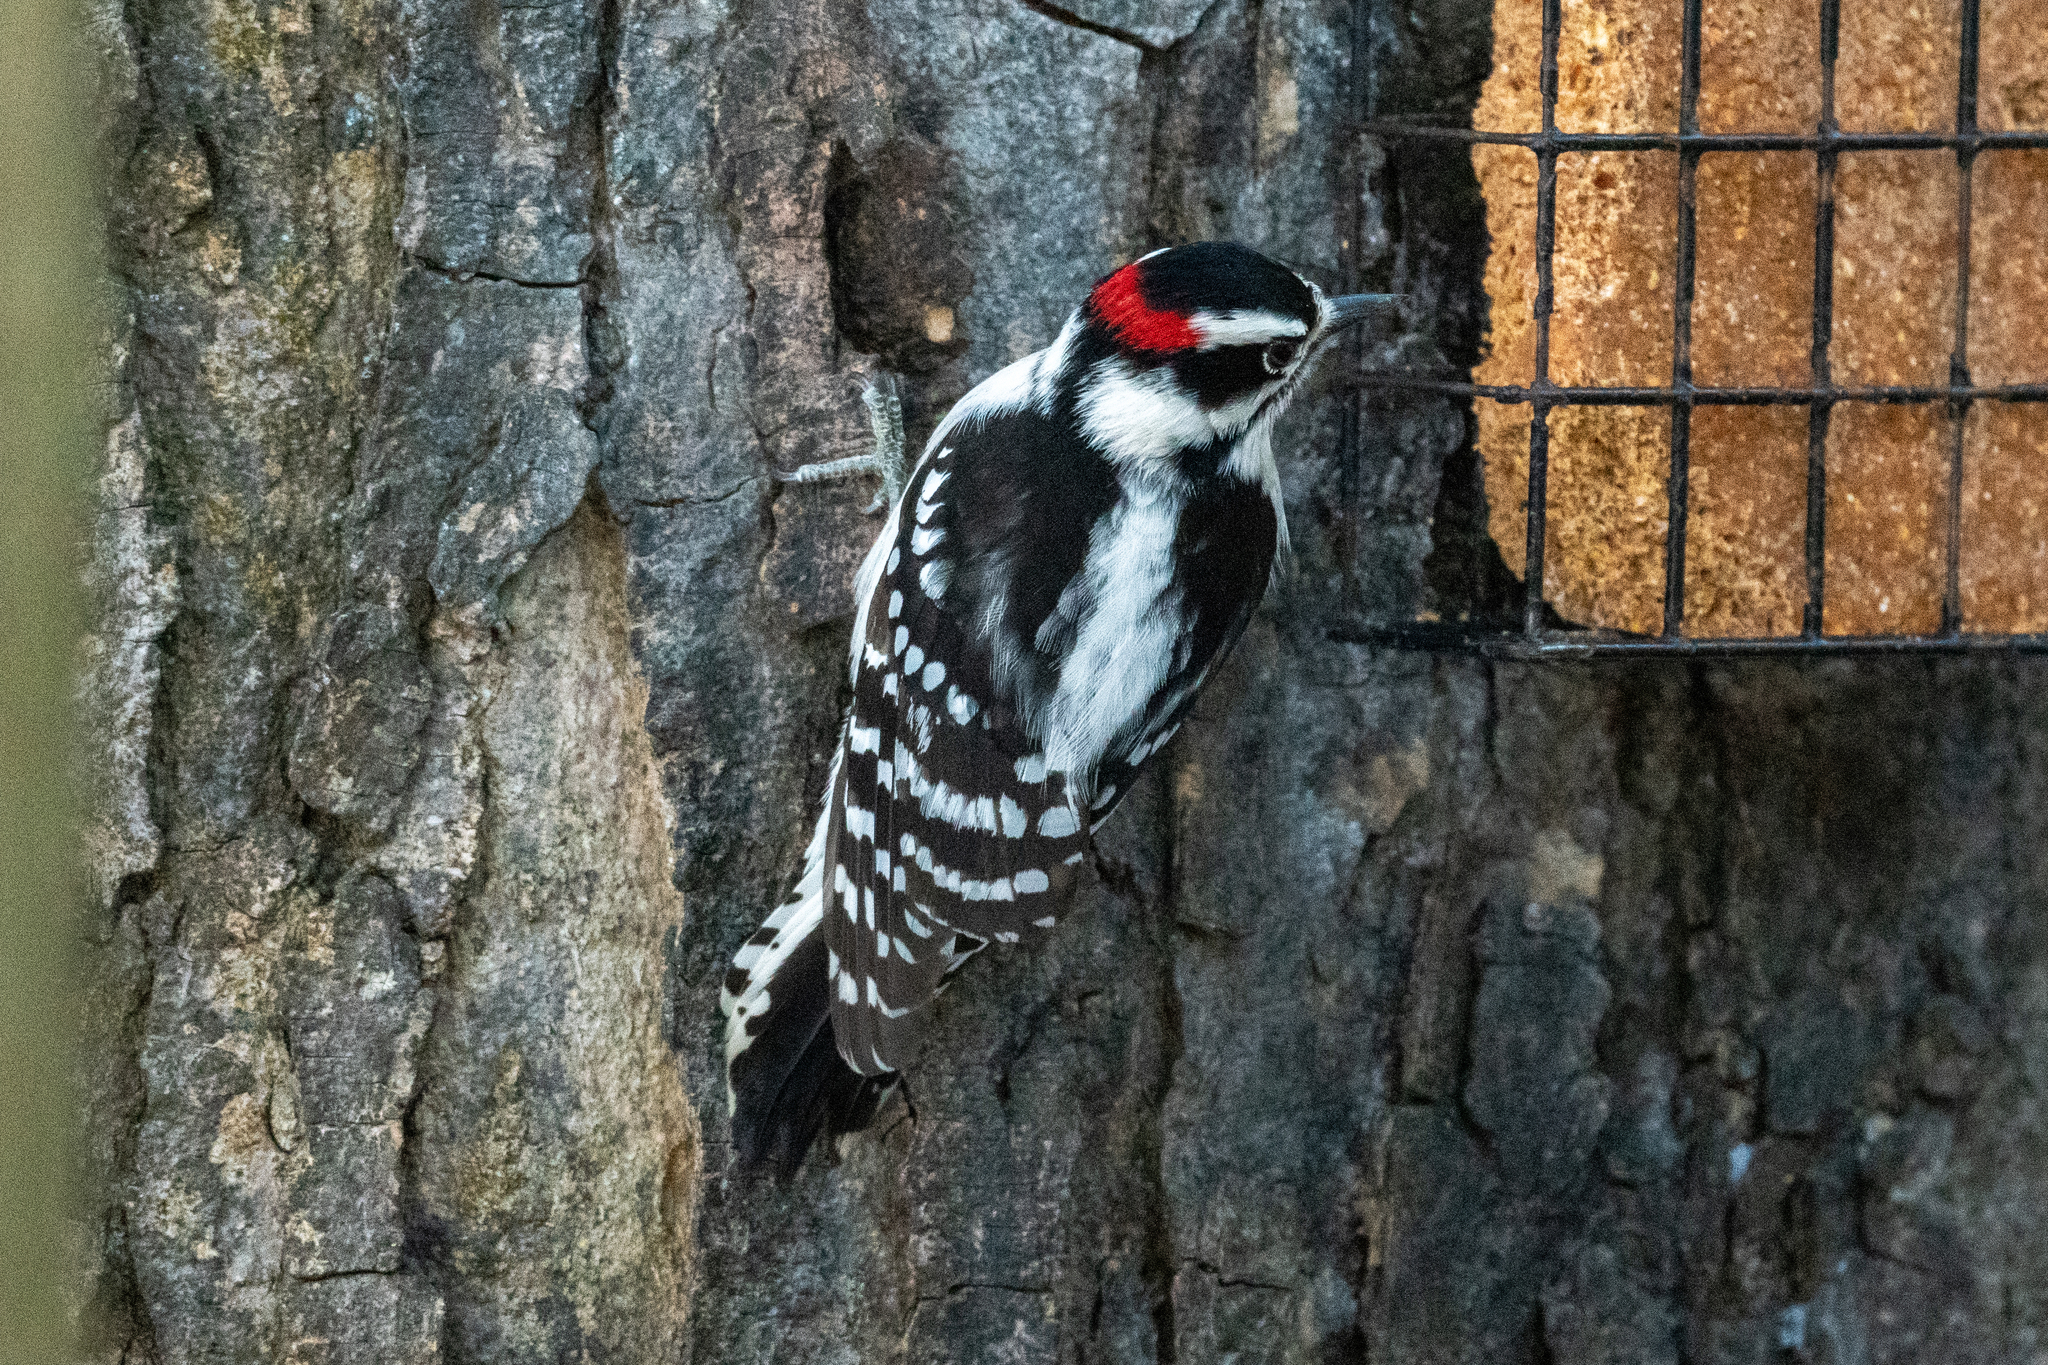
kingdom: Animalia
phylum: Chordata
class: Aves
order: Piciformes
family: Picidae
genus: Dryobates
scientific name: Dryobates pubescens
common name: Downy woodpecker
